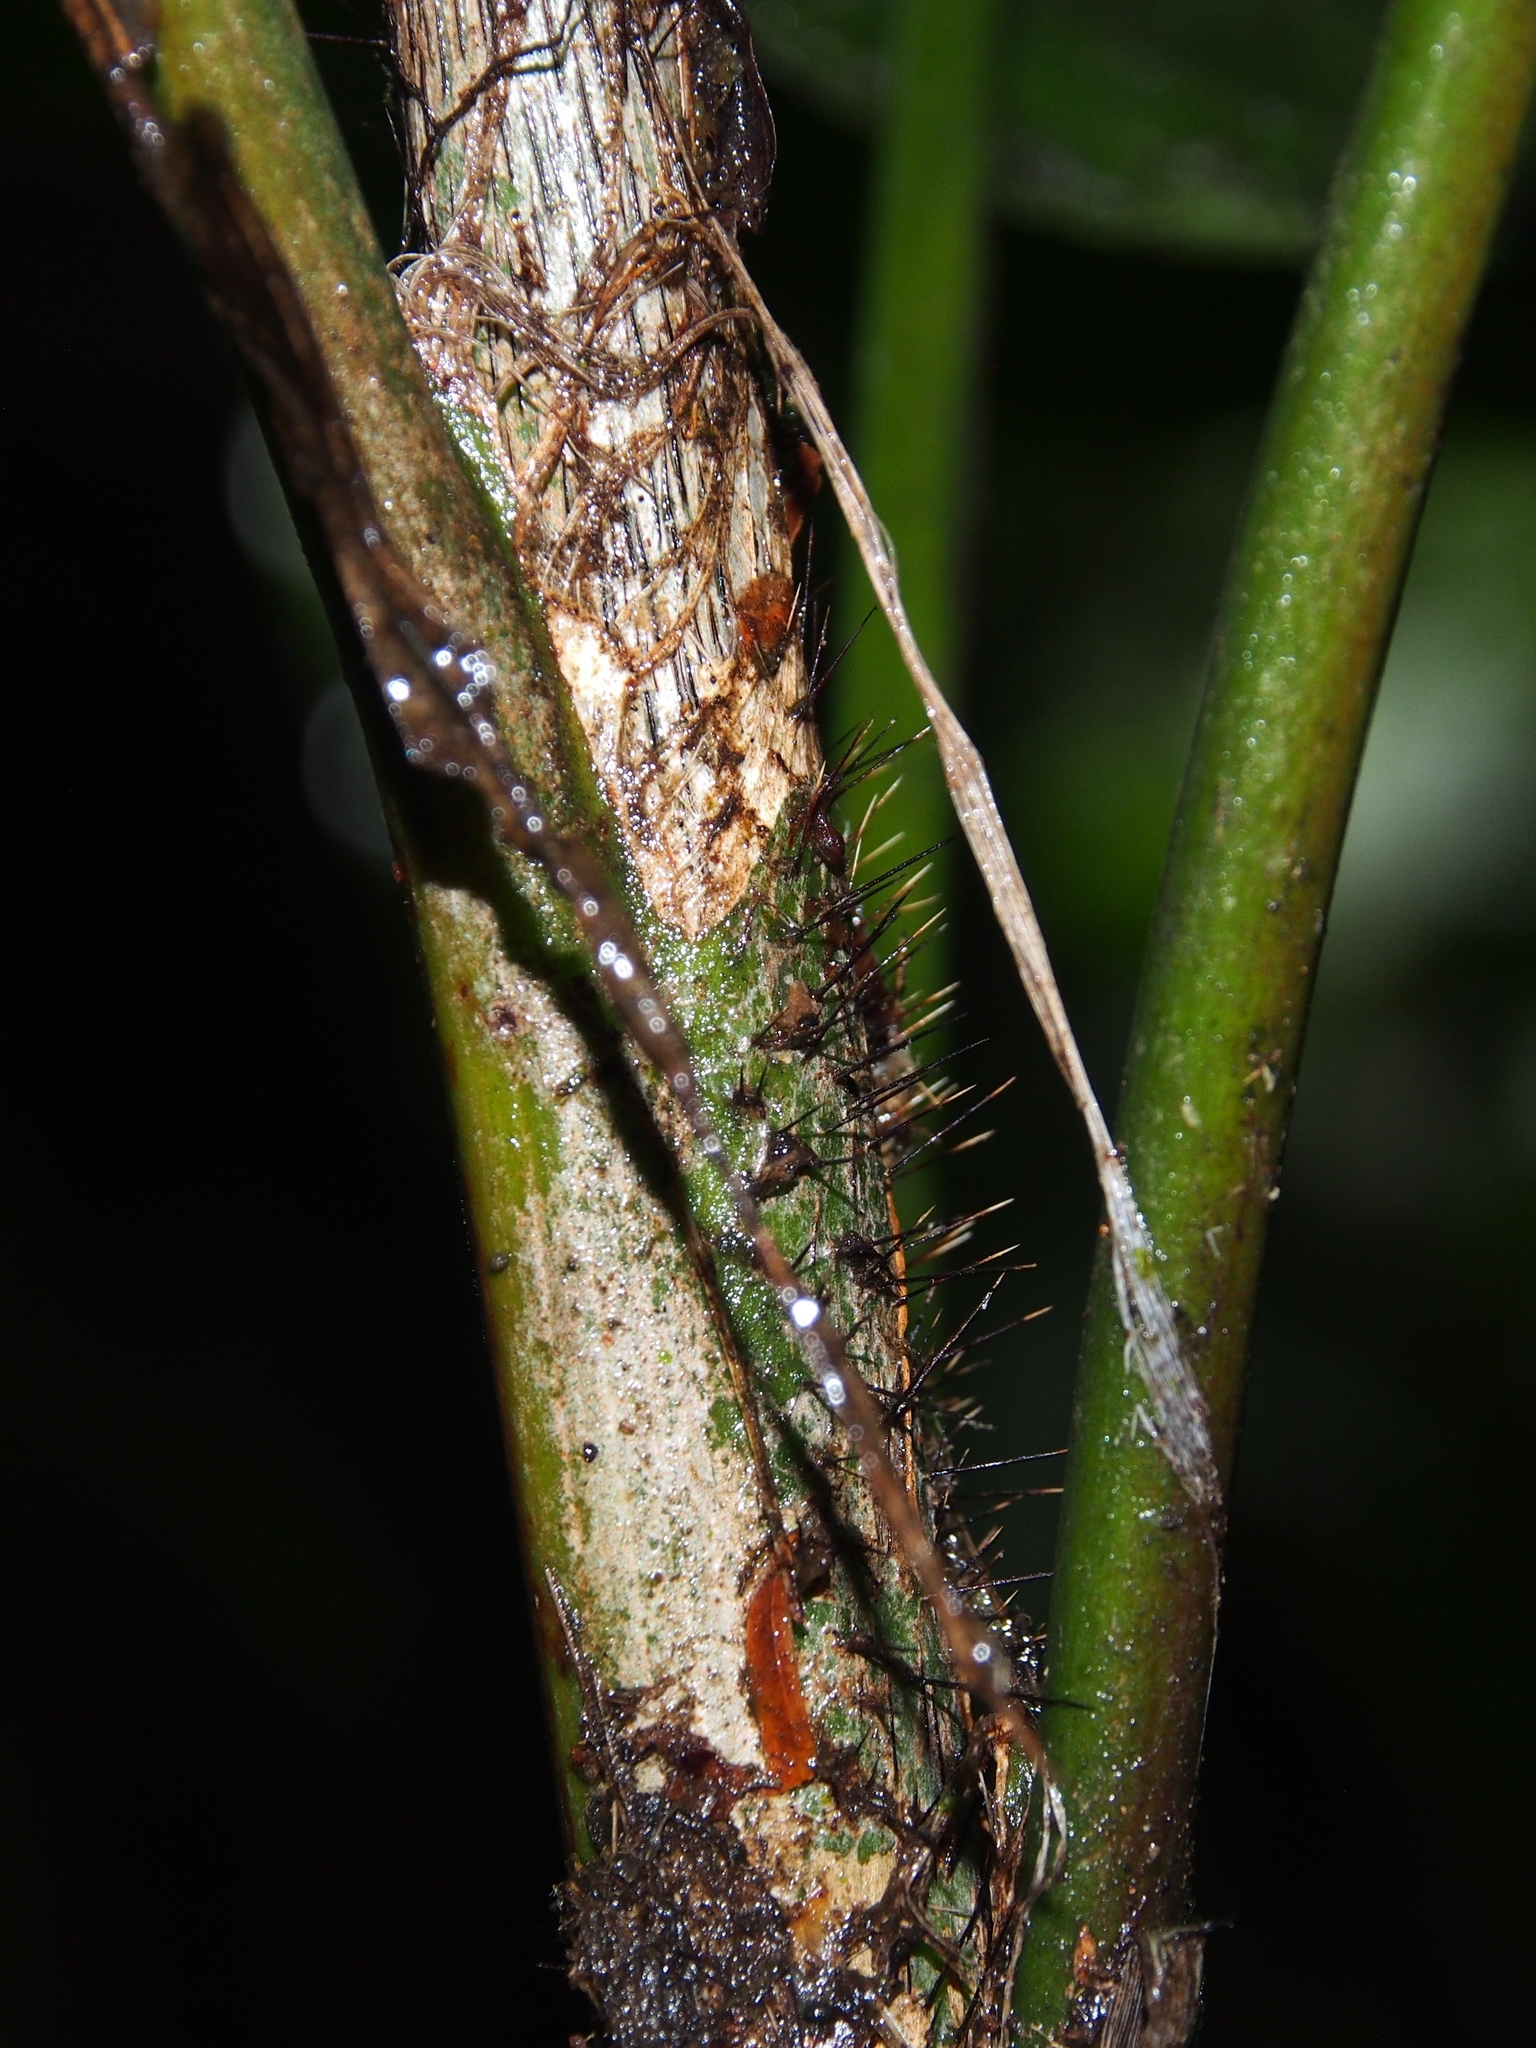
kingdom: Plantae
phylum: Tracheophyta
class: Liliopsida
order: Arecales
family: Arecaceae
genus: Bactris
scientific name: Bactris obovata
